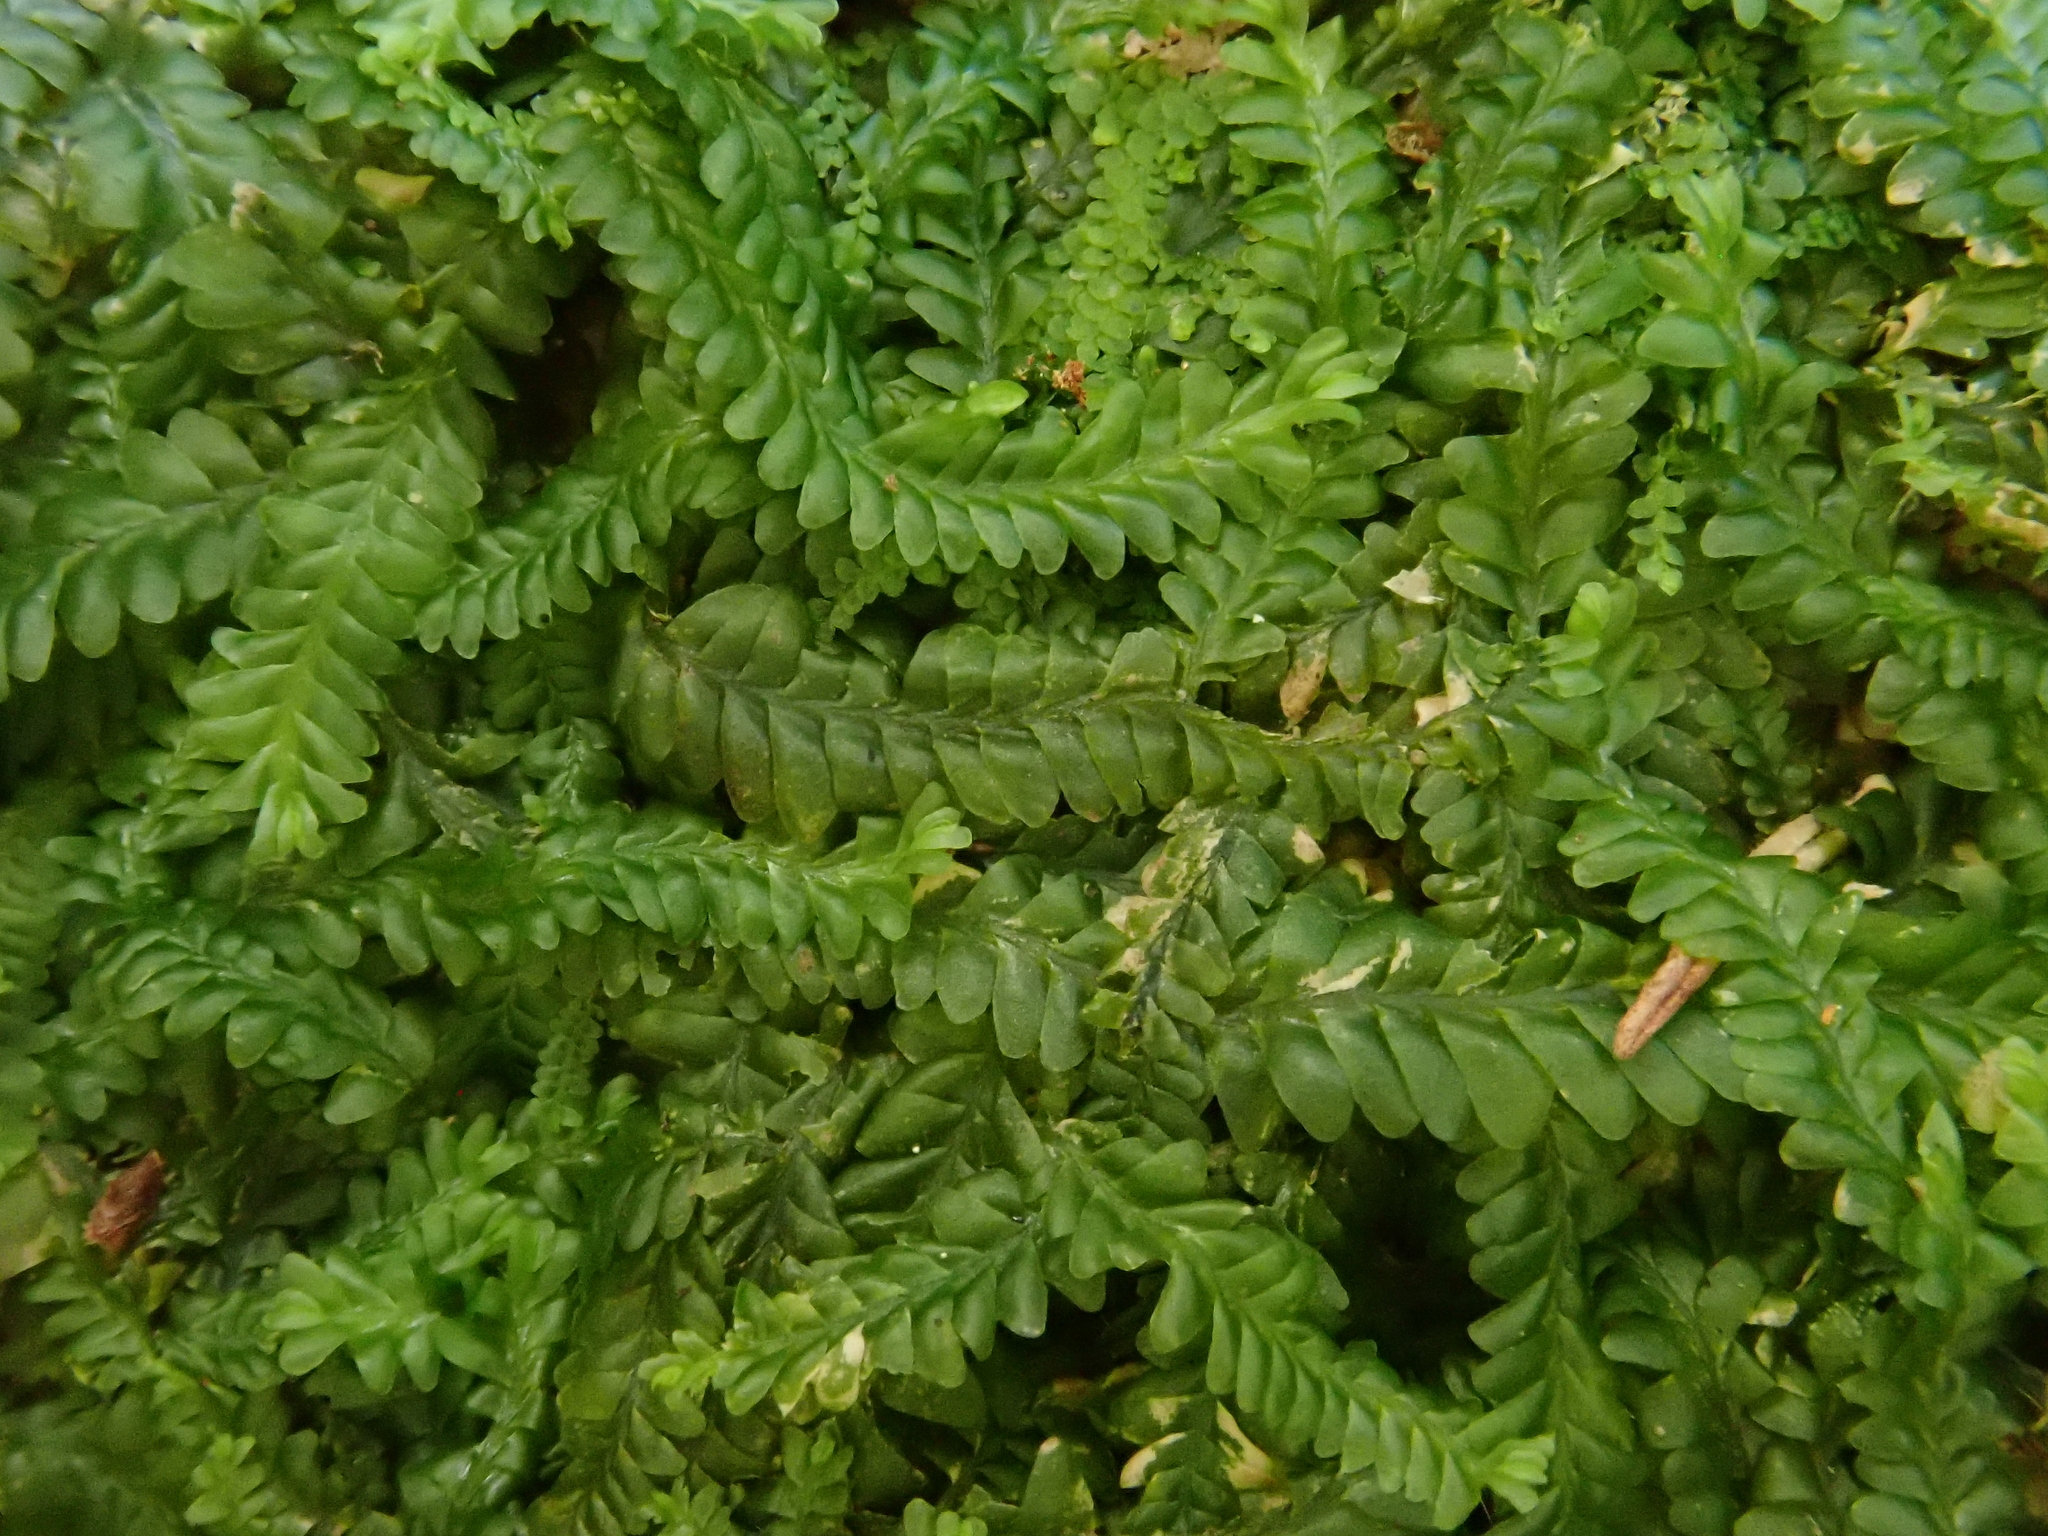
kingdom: Plantae
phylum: Marchantiophyta
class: Jungermanniopsida
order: Jungermanniales
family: Saccogynaceae
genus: Saccogyna
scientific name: Saccogyna viticulosa
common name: Straggling pouchwort
